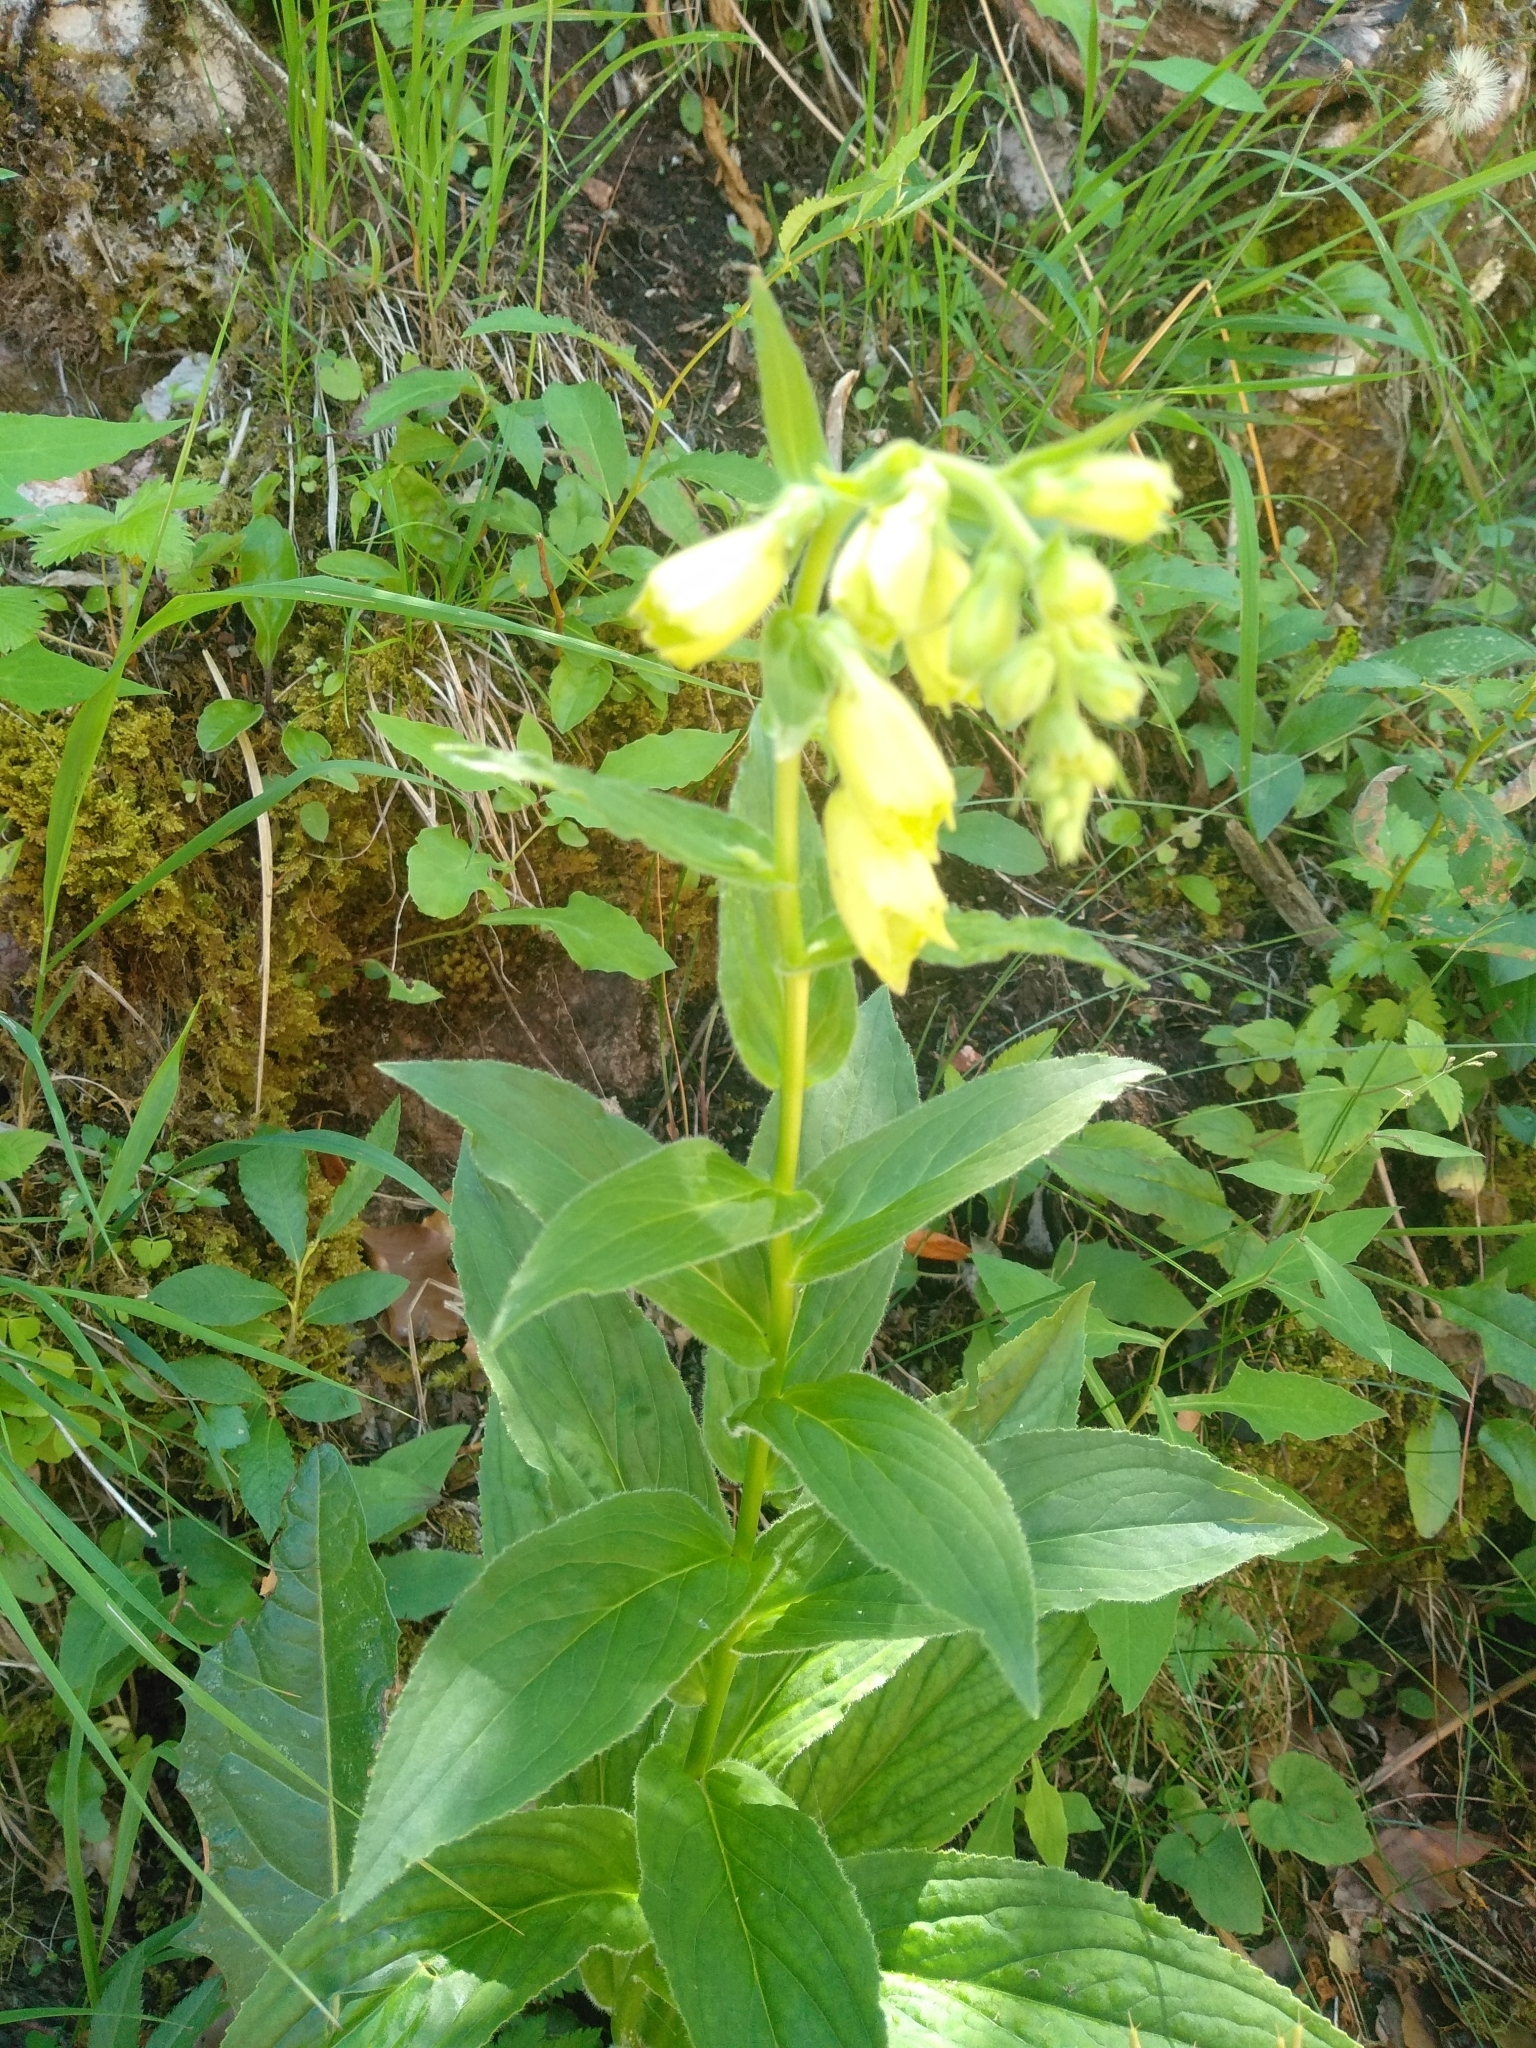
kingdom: Plantae
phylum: Tracheophyta
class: Magnoliopsida
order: Lamiales
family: Plantaginaceae
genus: Digitalis
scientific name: Digitalis grandiflora
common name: Yellow foxglove
